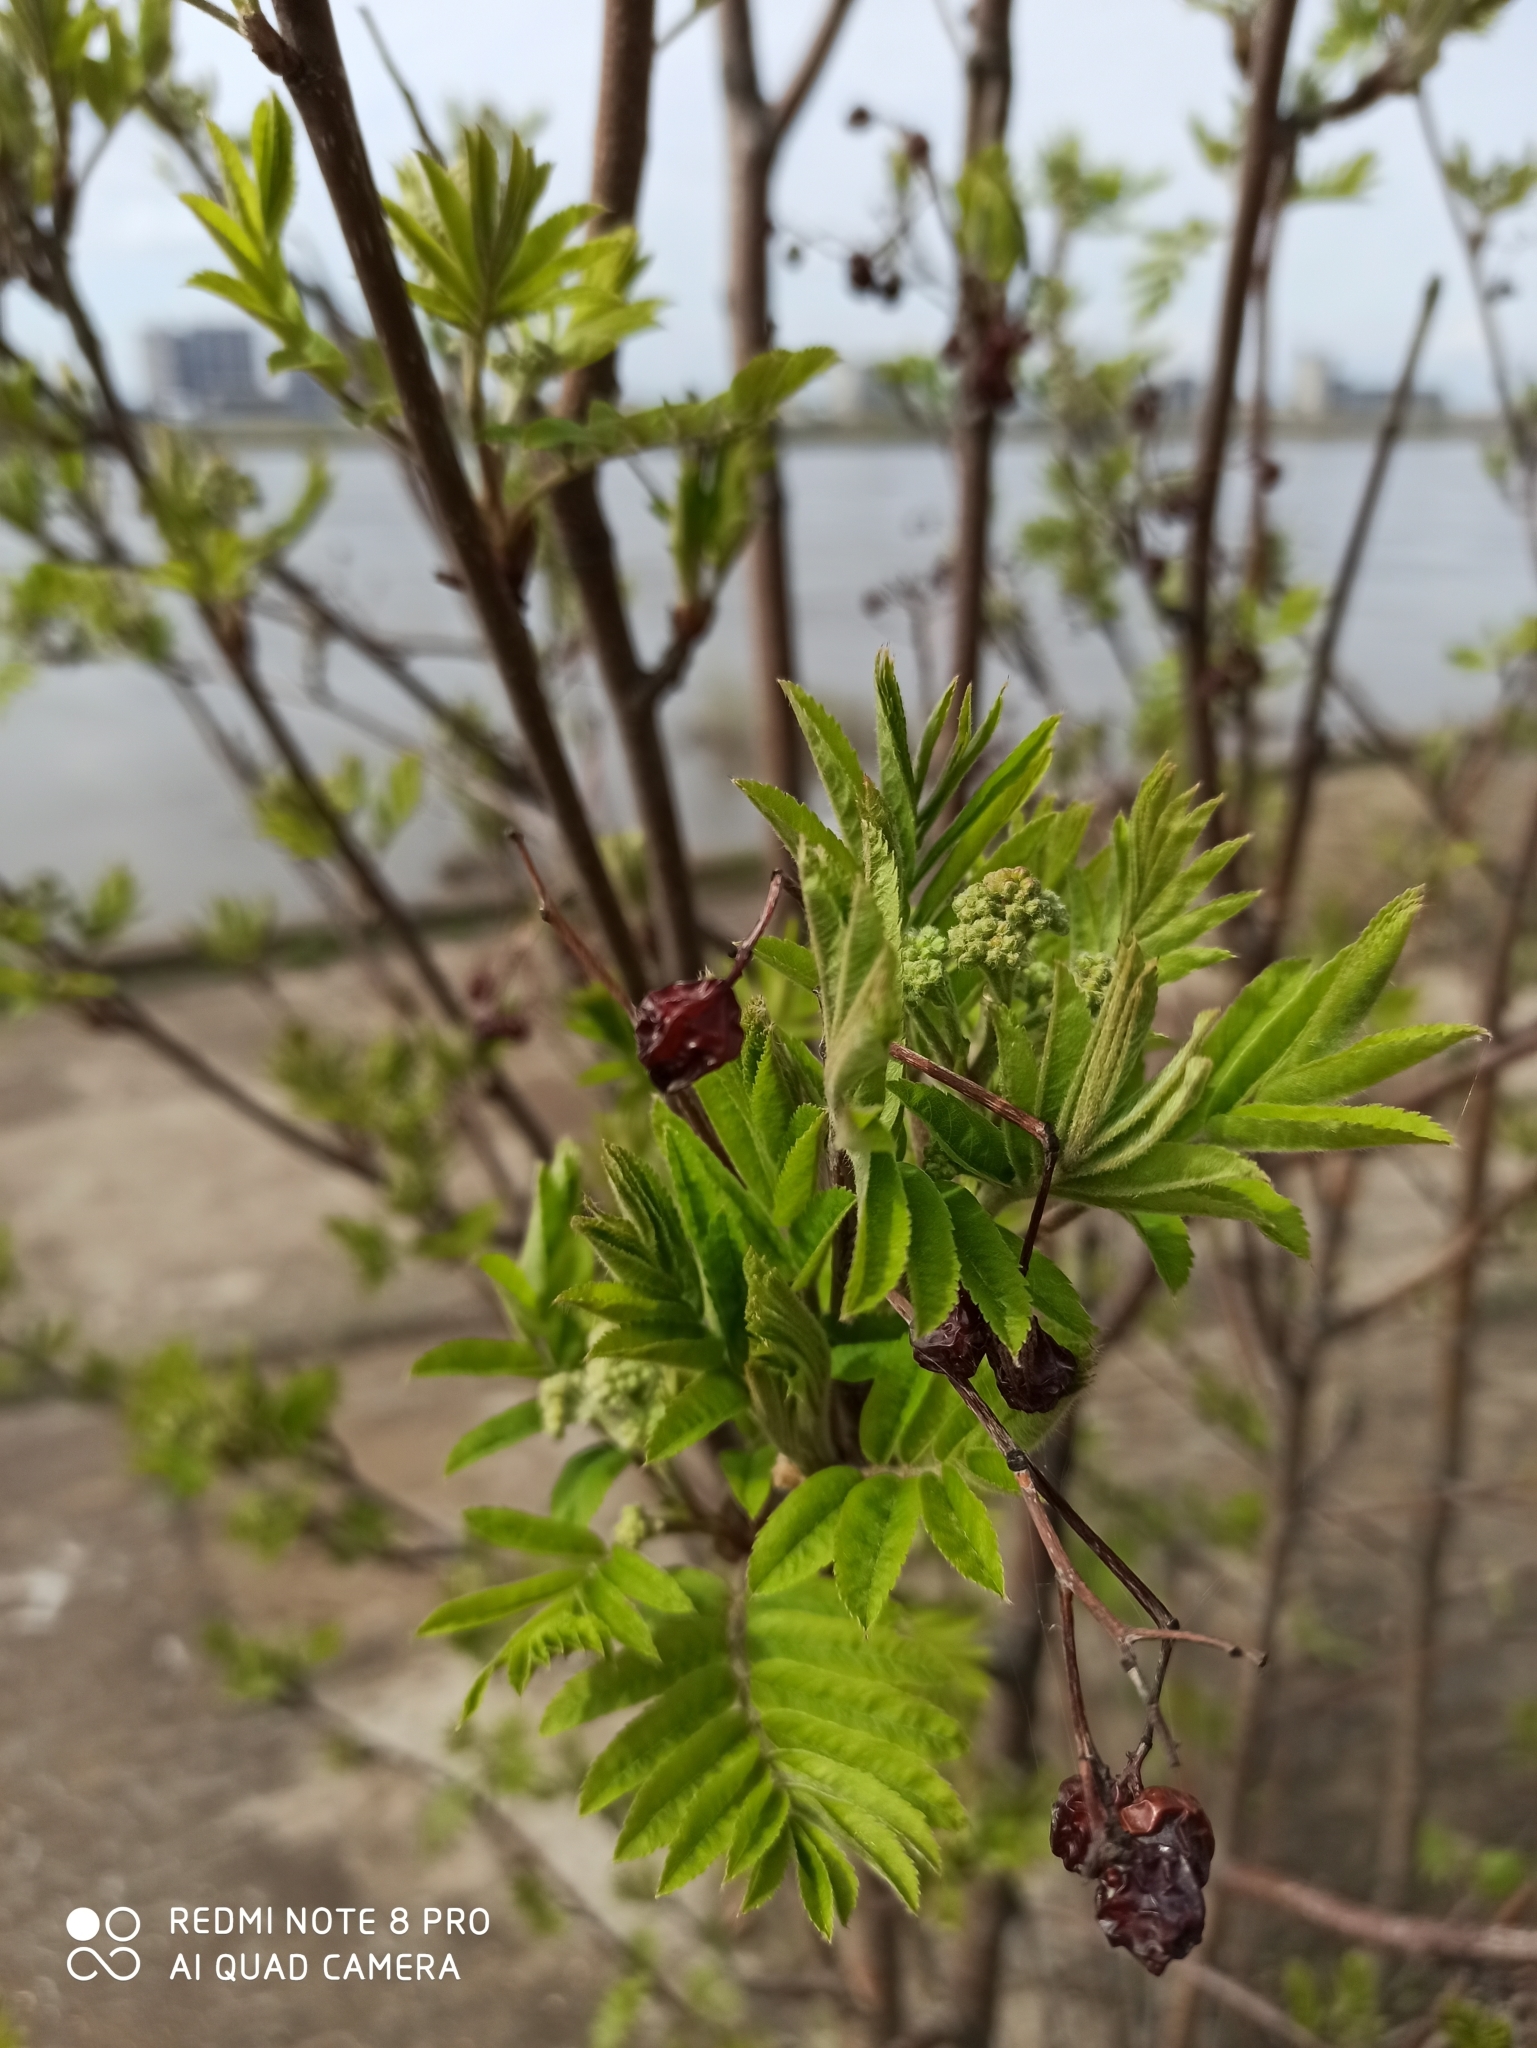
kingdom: Plantae
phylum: Tracheophyta
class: Magnoliopsida
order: Rosales
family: Rosaceae
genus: Sorbus
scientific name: Sorbus aucuparia
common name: Rowan
